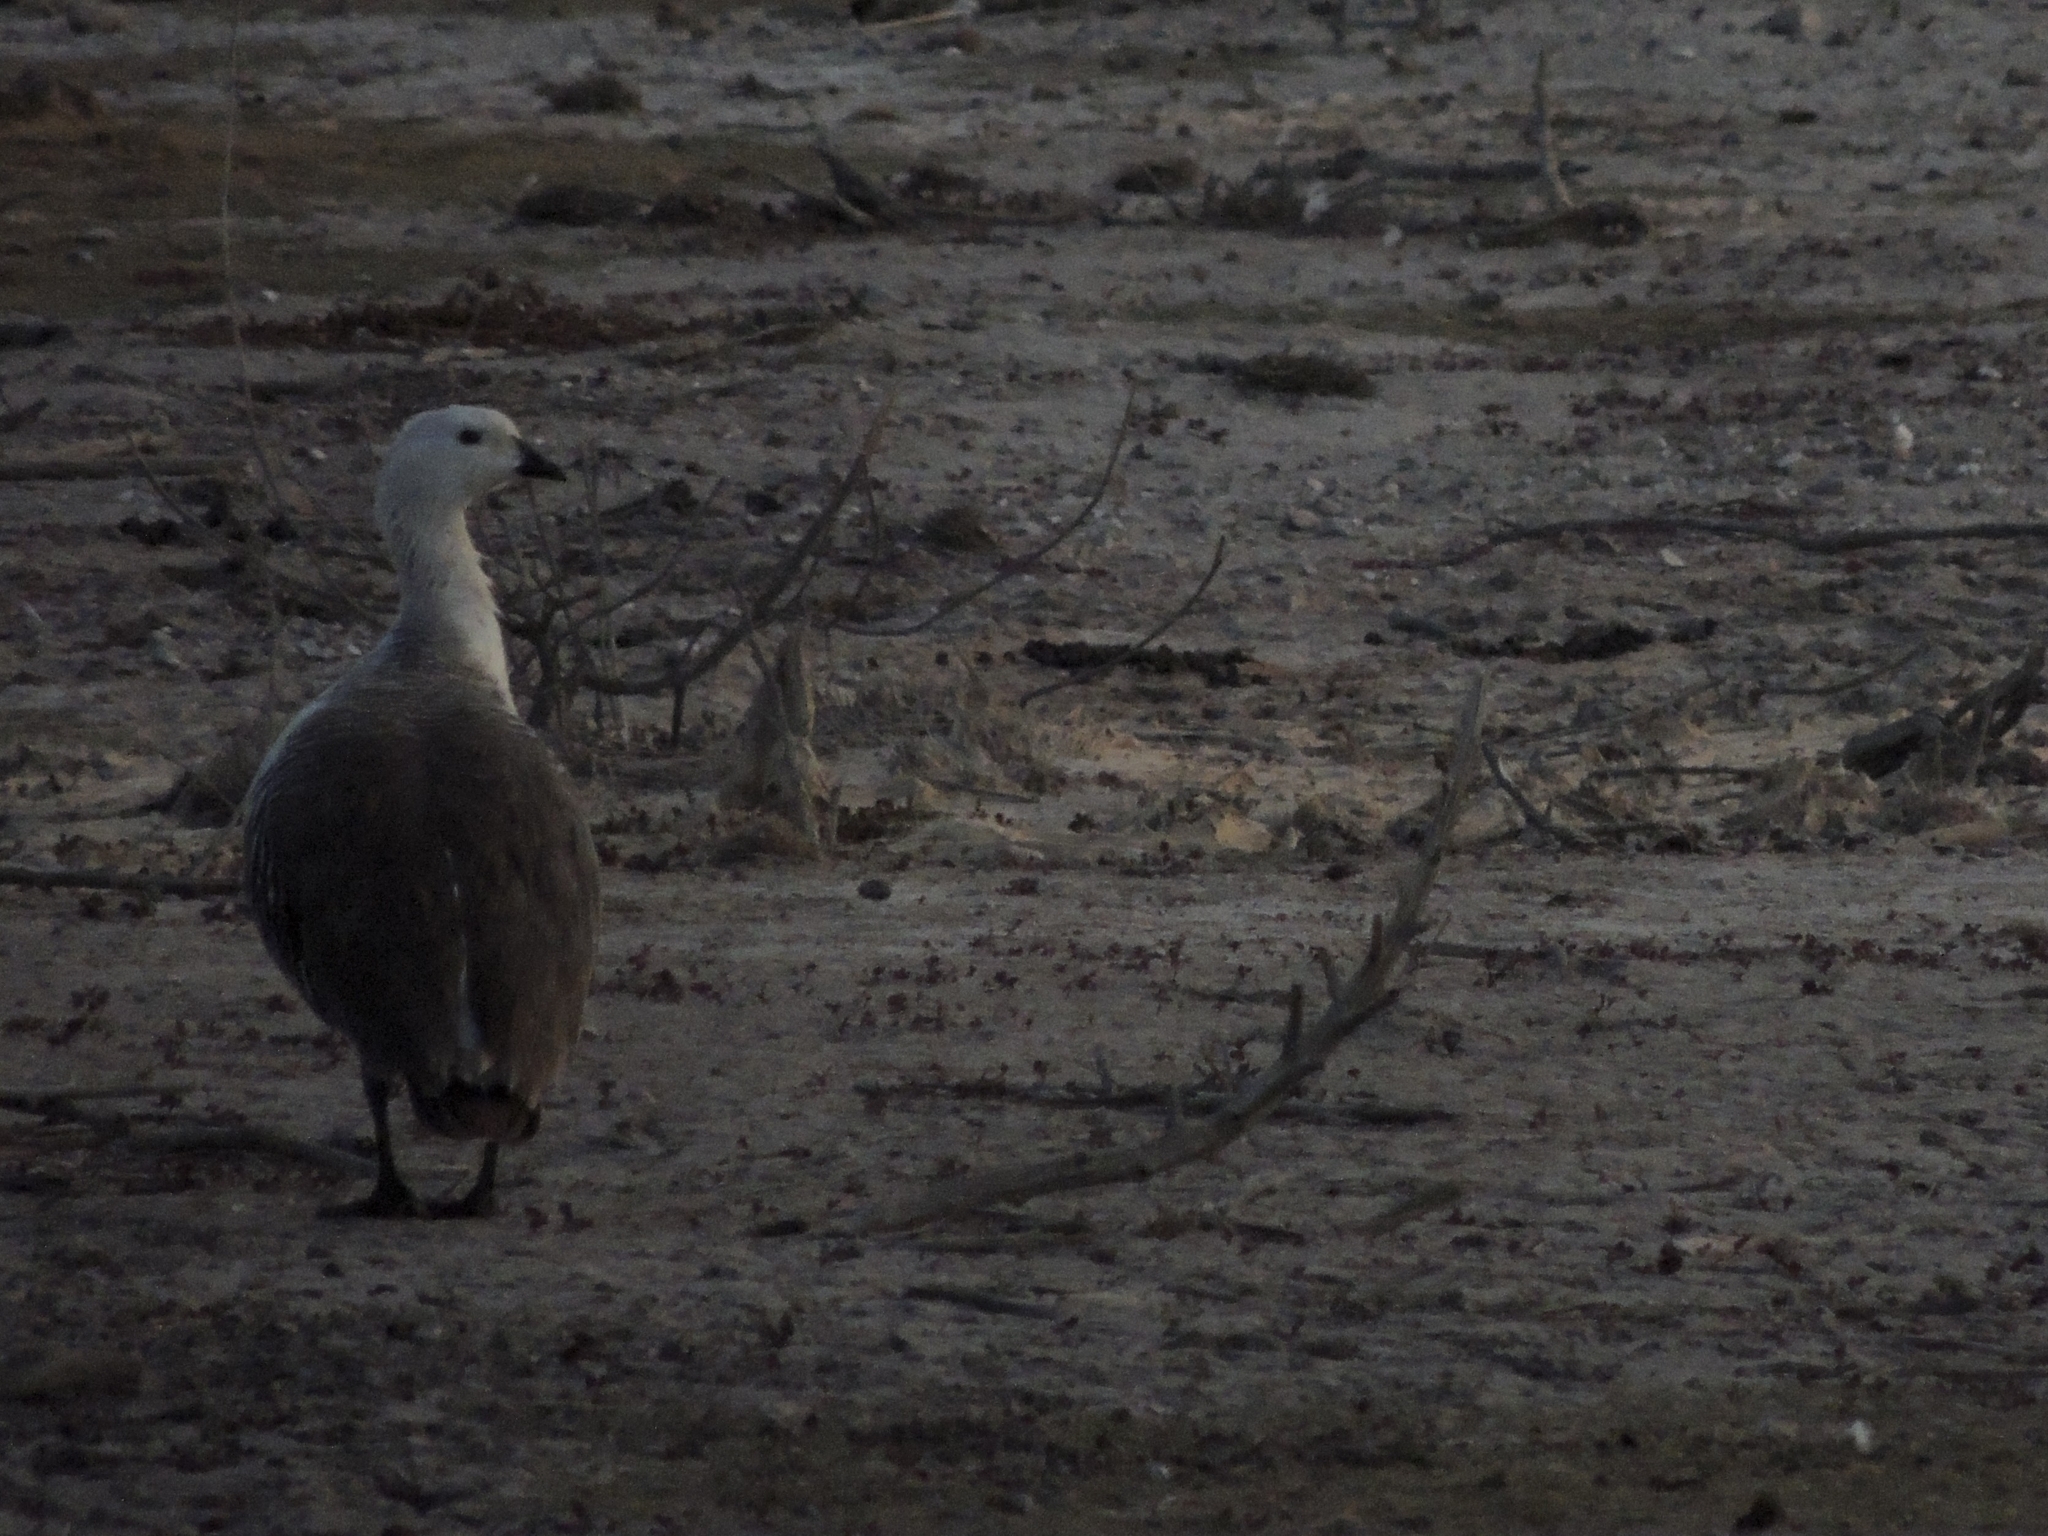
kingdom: Animalia
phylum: Chordata
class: Aves
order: Anseriformes
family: Anatidae
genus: Chloephaga
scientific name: Chloephaga picta
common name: Upland goose
